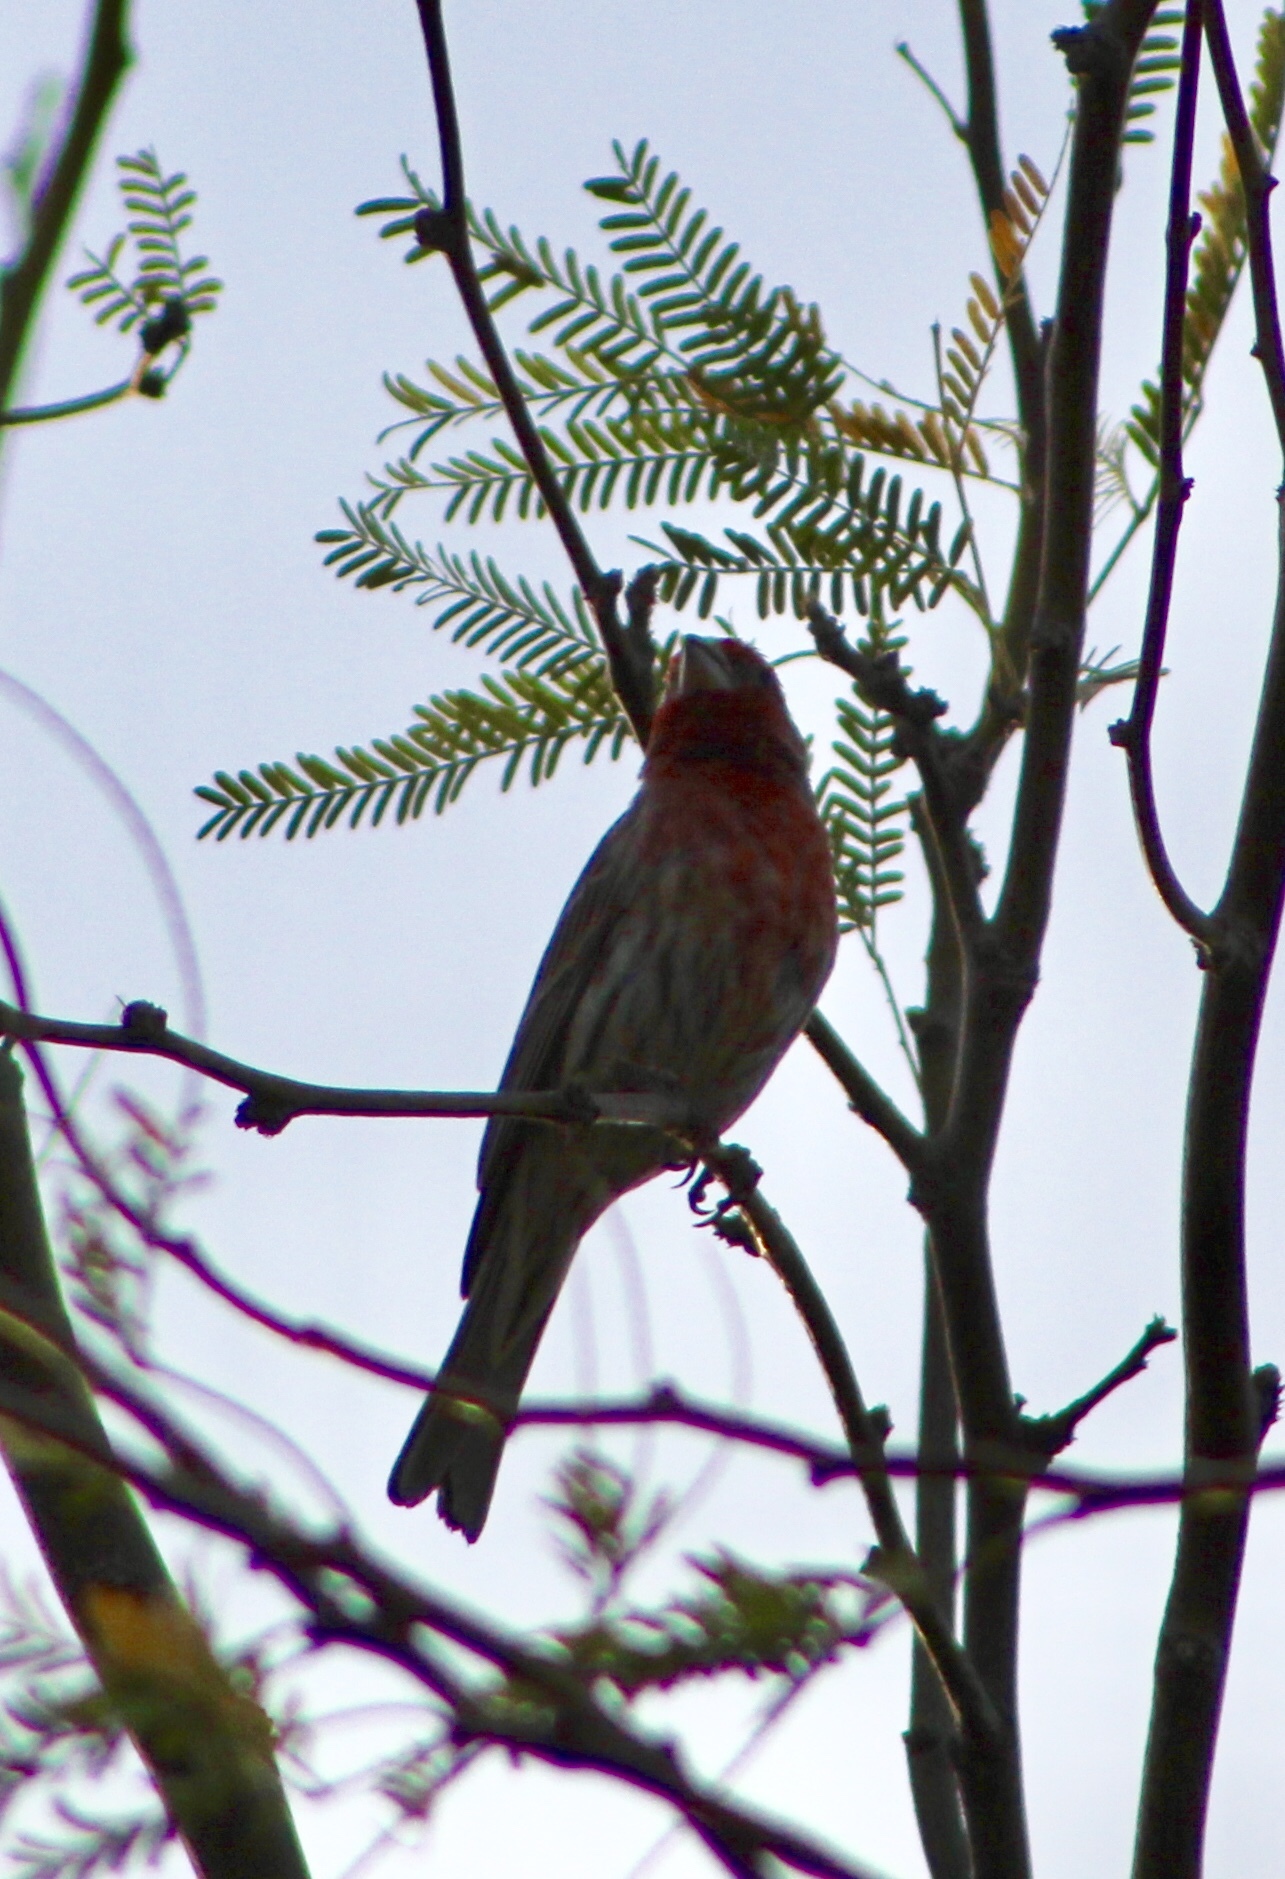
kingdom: Animalia
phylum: Chordata
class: Aves
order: Passeriformes
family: Fringillidae
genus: Haemorhous
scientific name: Haemorhous mexicanus
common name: House finch
